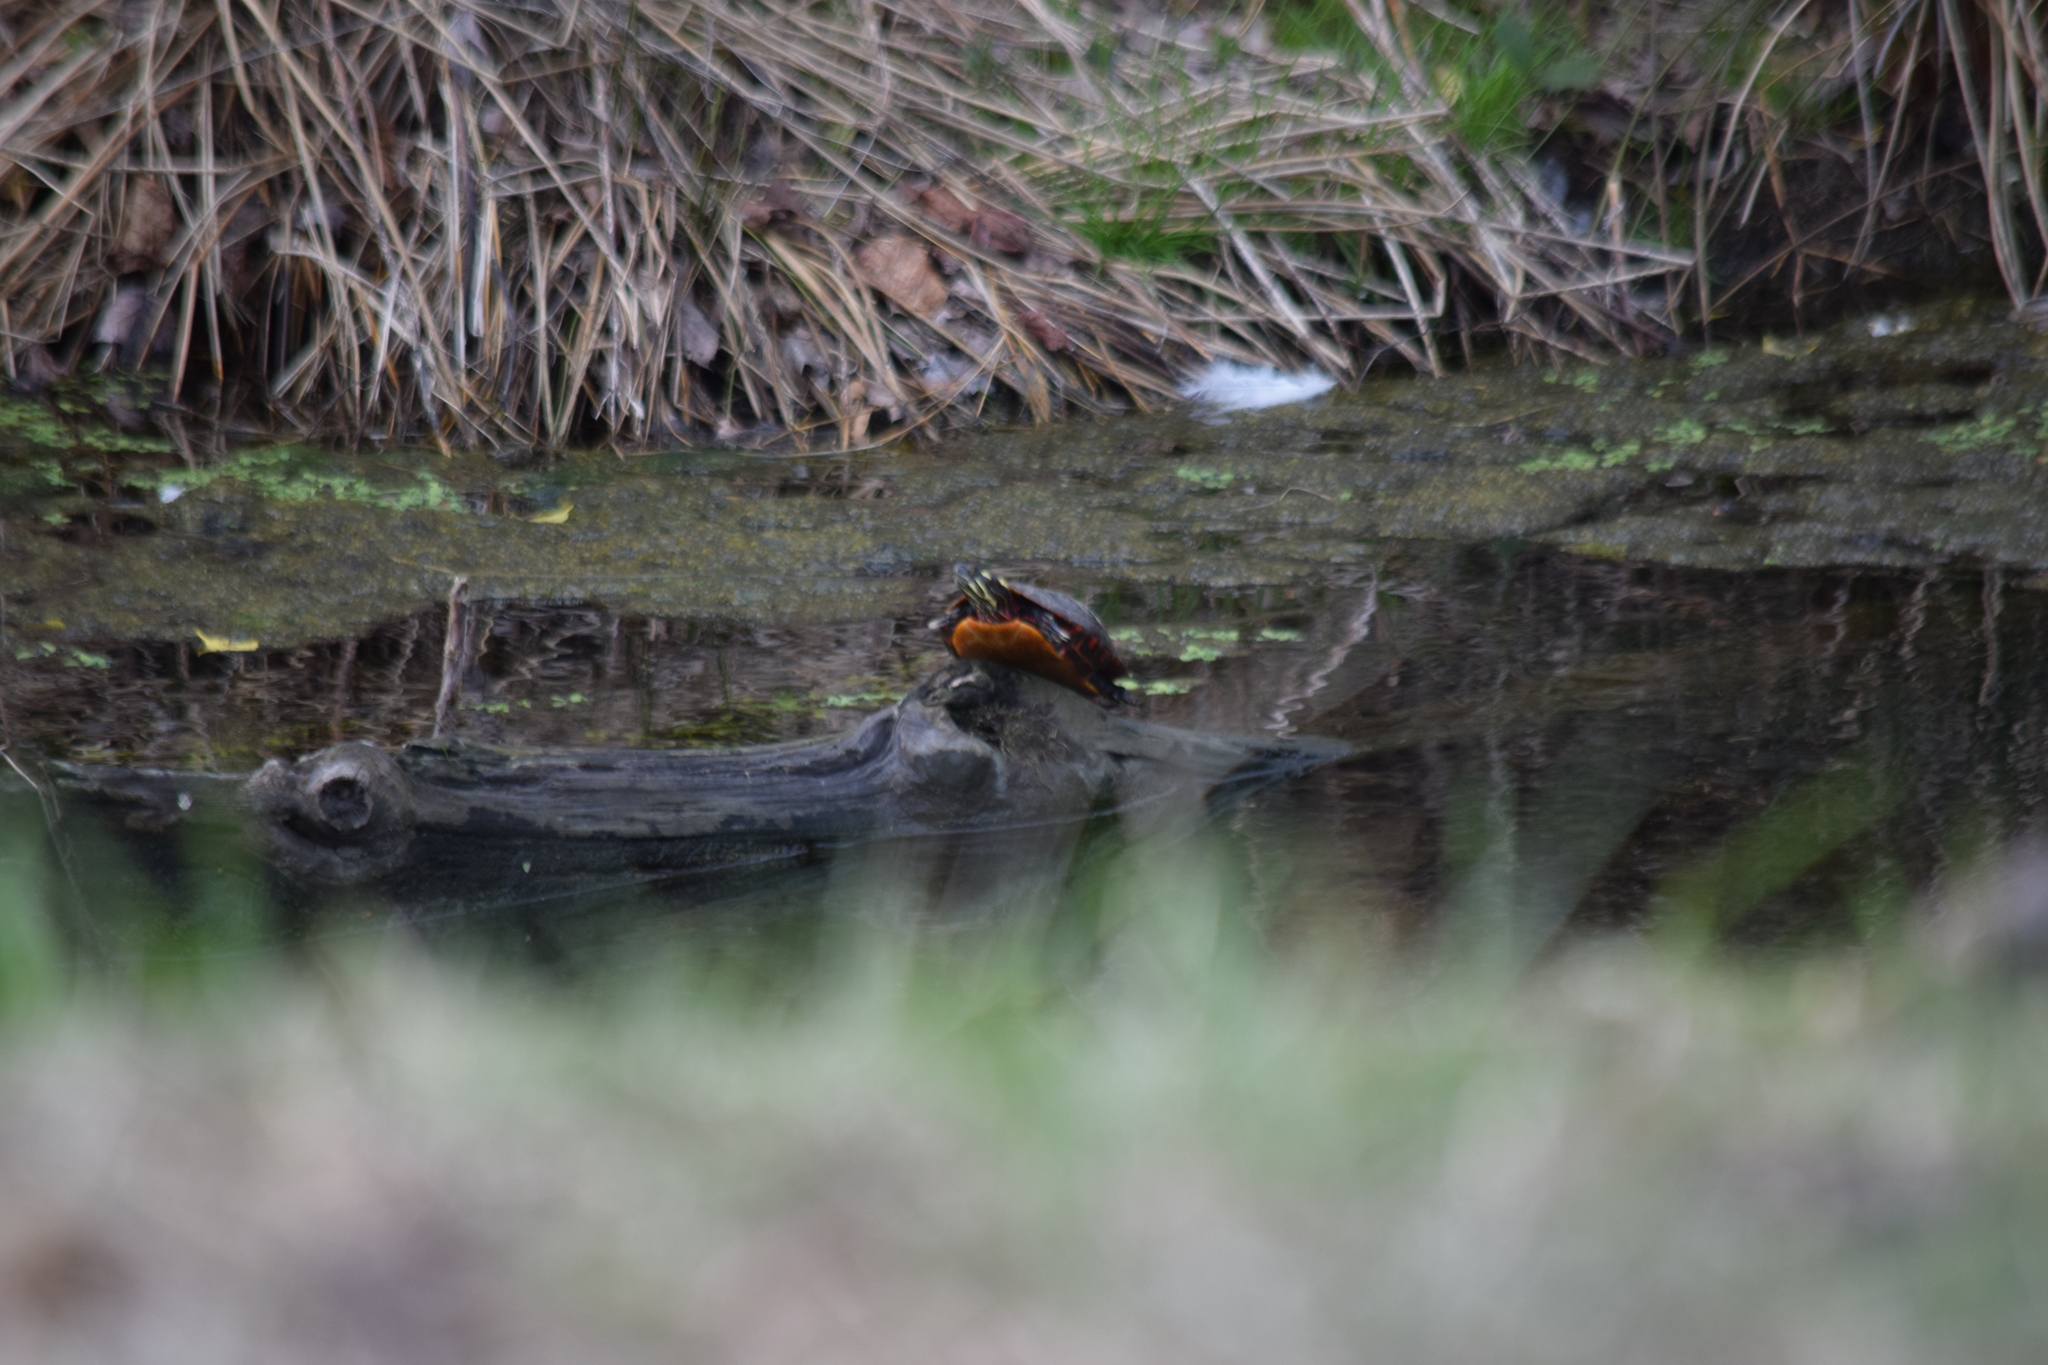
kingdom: Animalia
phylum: Chordata
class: Testudines
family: Emydidae
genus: Chrysemys
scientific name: Chrysemys picta
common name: Painted turtle
